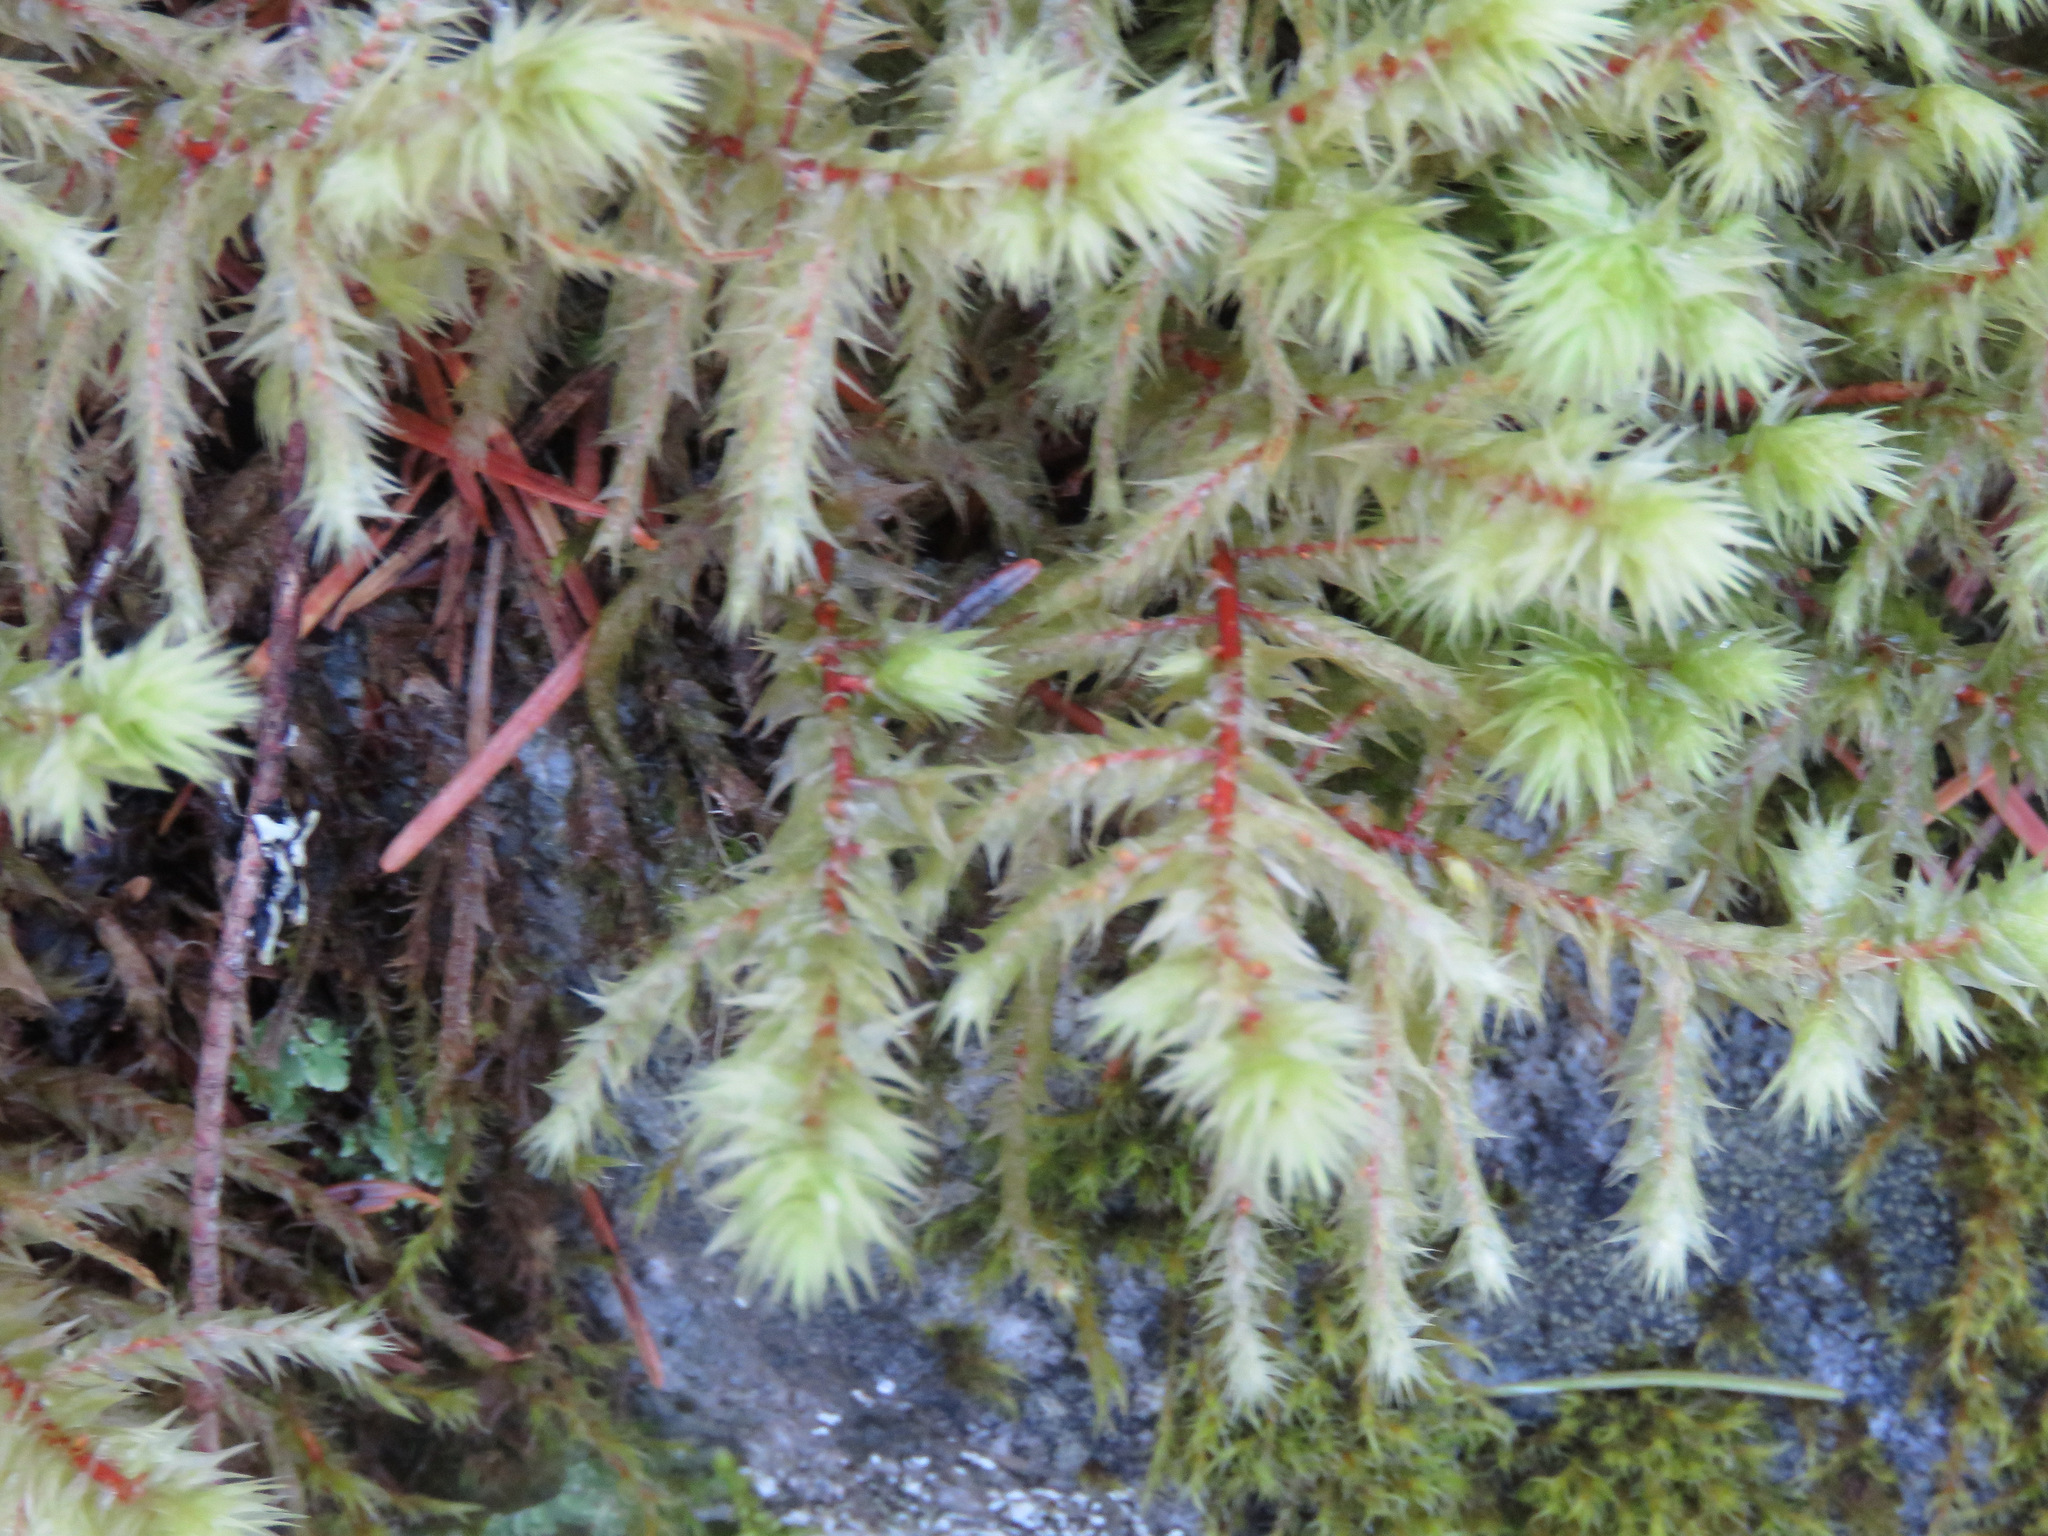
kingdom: Plantae
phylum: Bryophyta
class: Bryopsida
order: Hypnales
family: Hylocomiaceae
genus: Hylocomiadelphus
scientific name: Hylocomiadelphus triquetrus
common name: Rough goose neck moss
